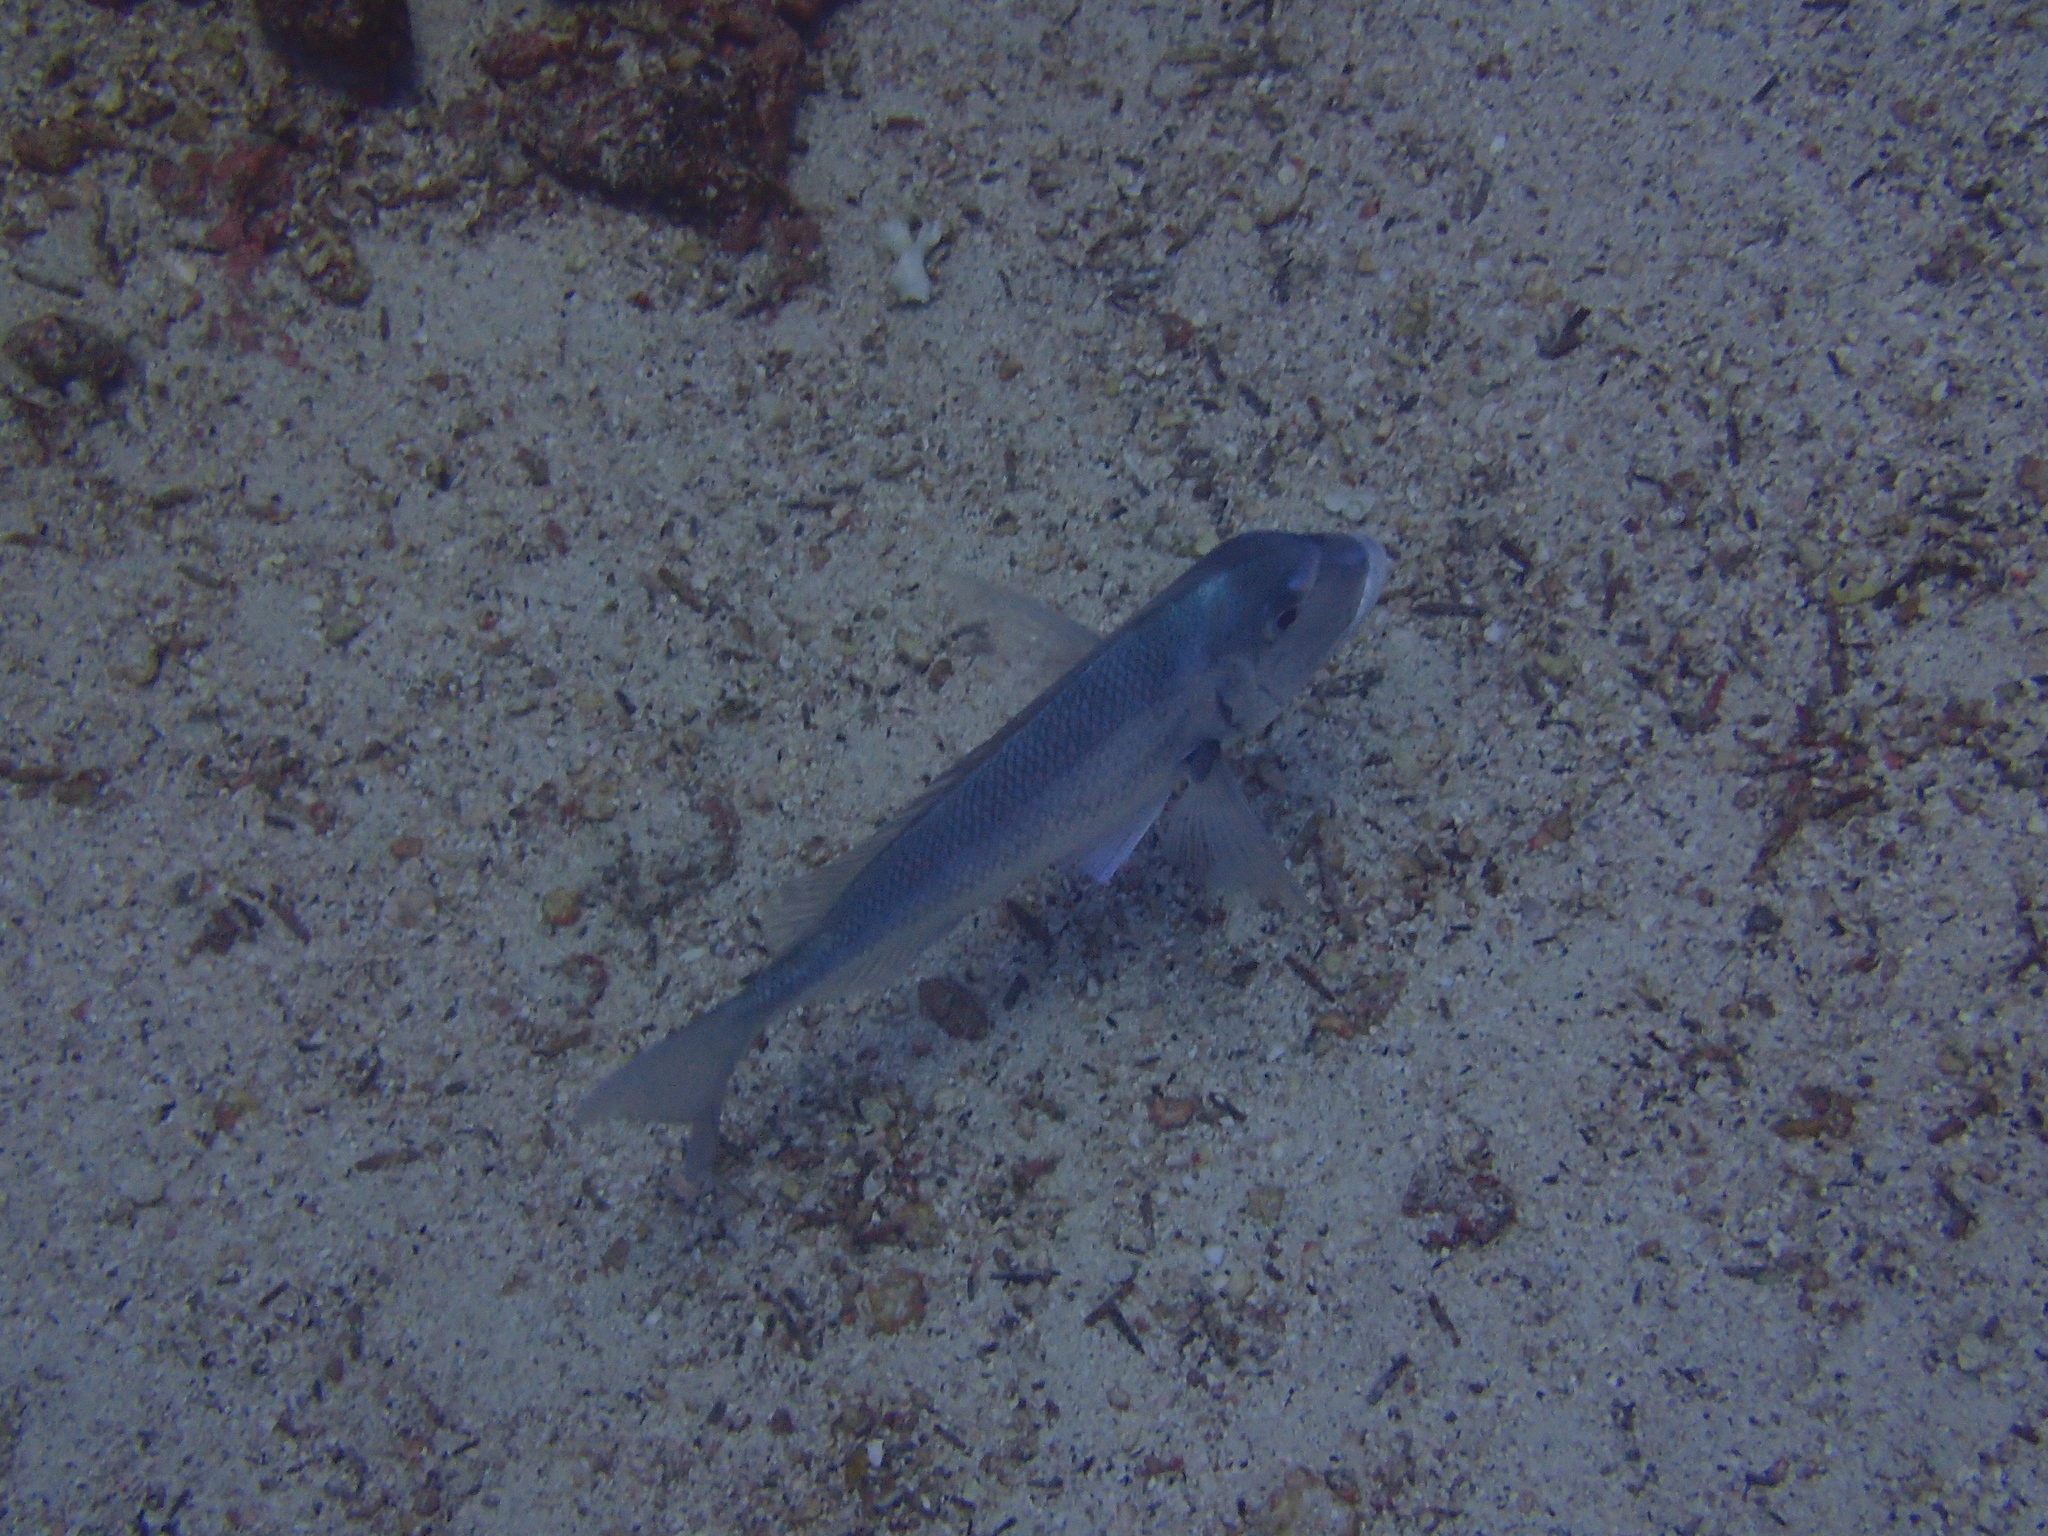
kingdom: Animalia
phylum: Chordata
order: Perciformes
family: Sparidae
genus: Calamus
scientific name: Calamus taurinus
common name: Galapagos porgy
